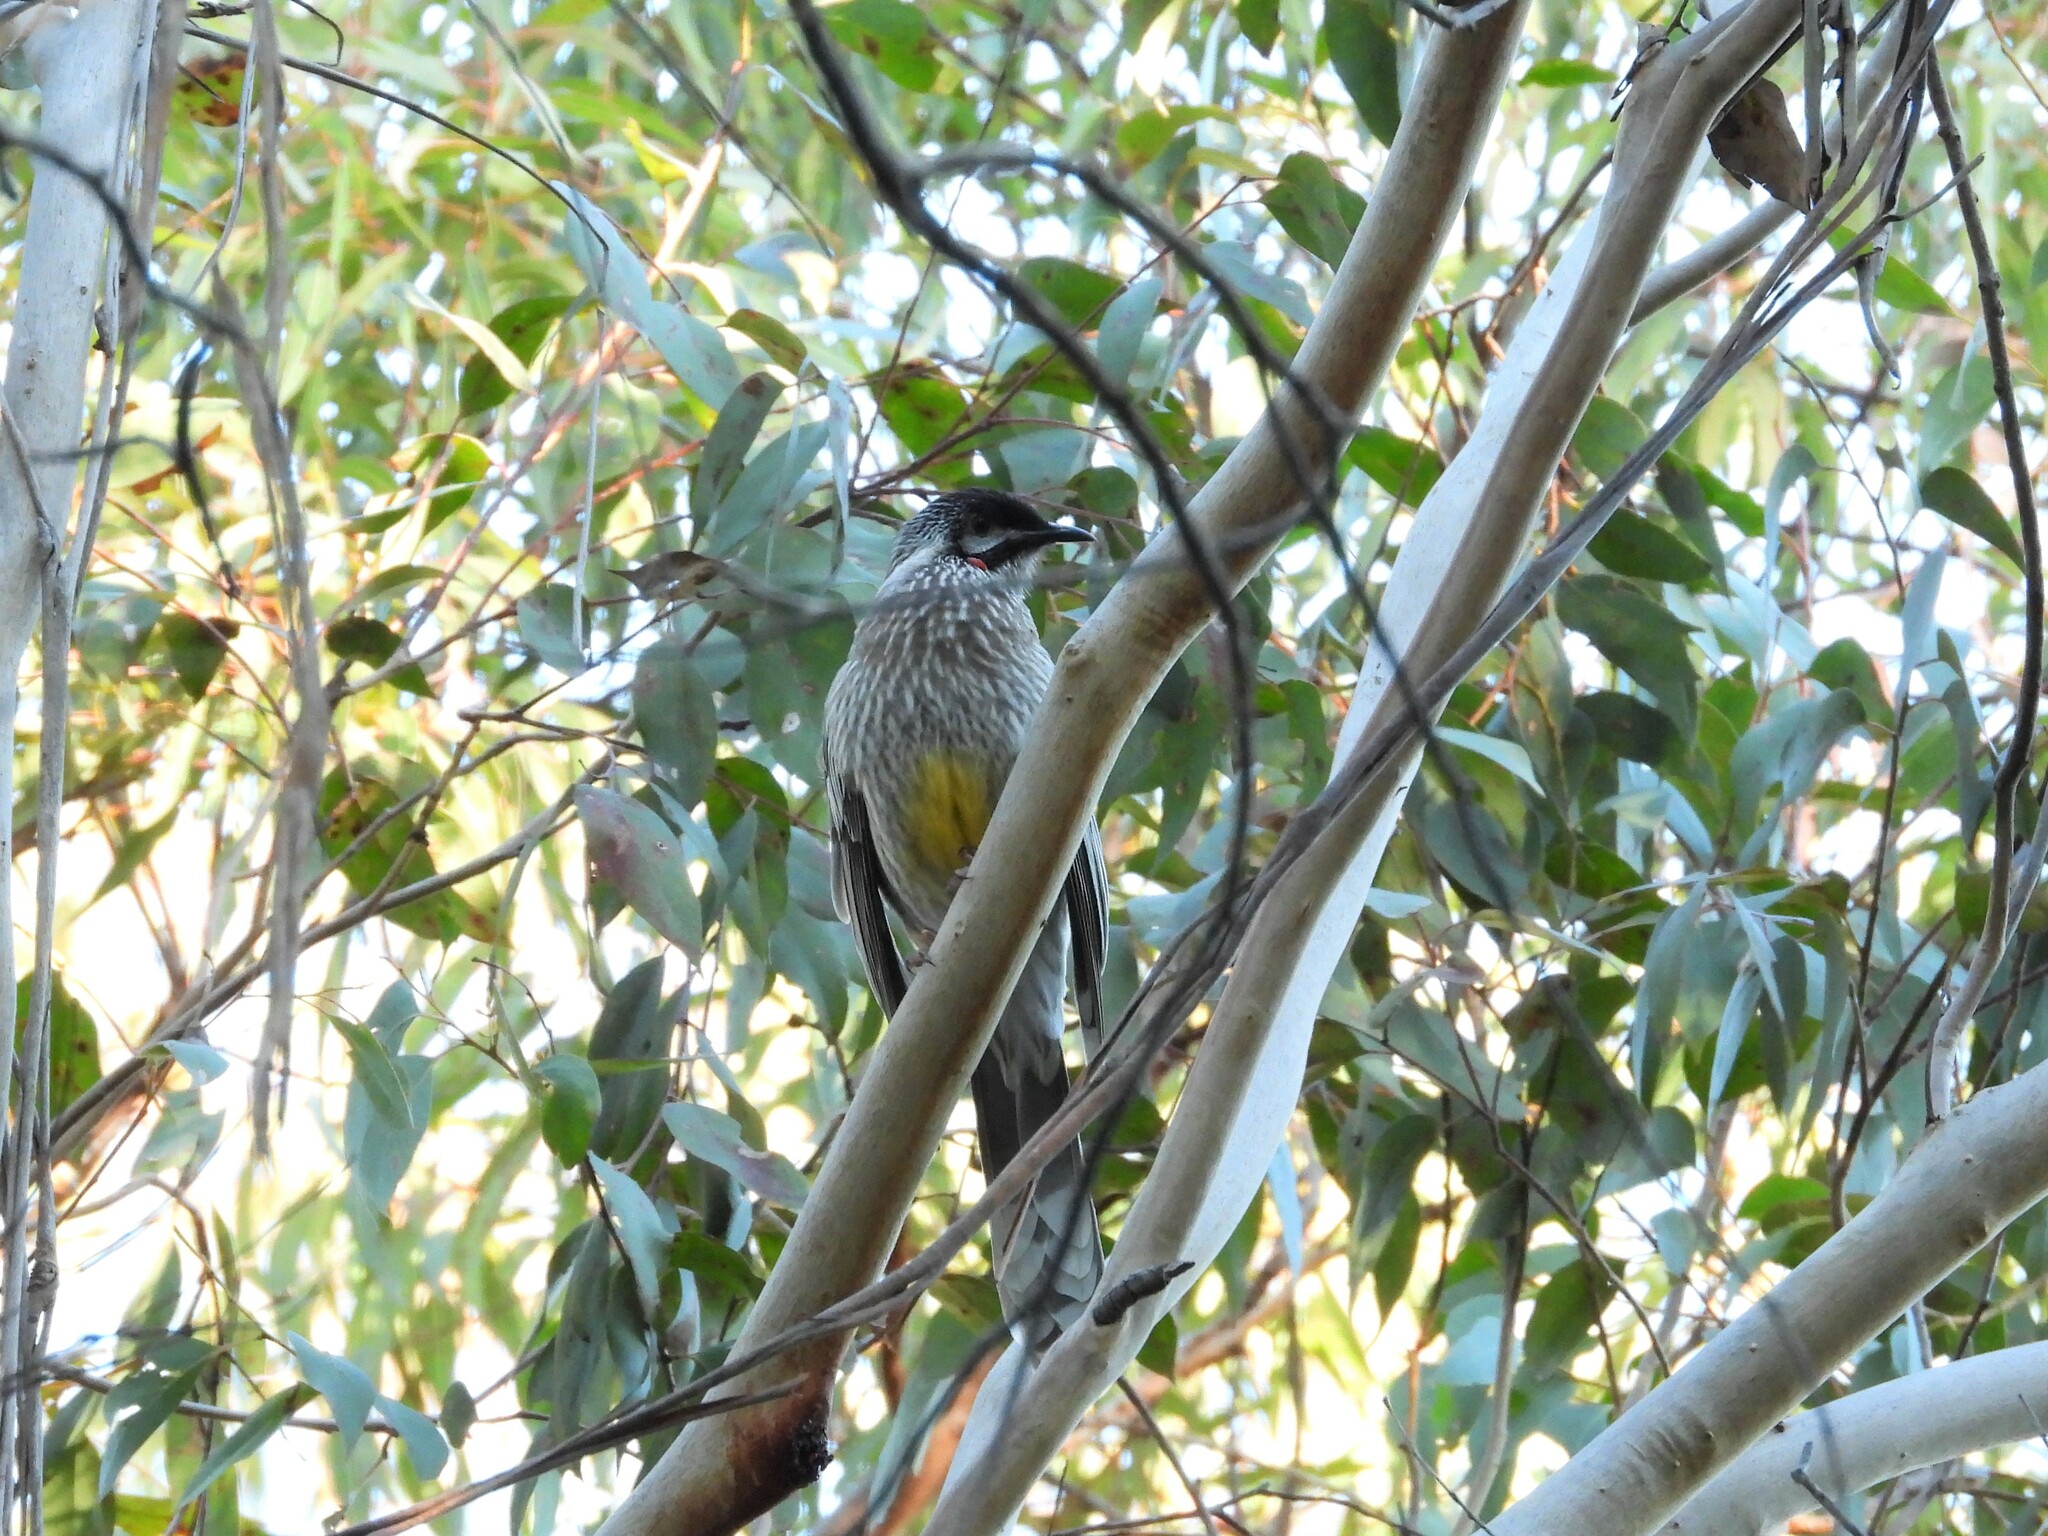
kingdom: Animalia
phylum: Chordata
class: Aves
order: Passeriformes
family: Meliphagidae
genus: Anthochaera
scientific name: Anthochaera carunculata
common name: Red wattlebird
